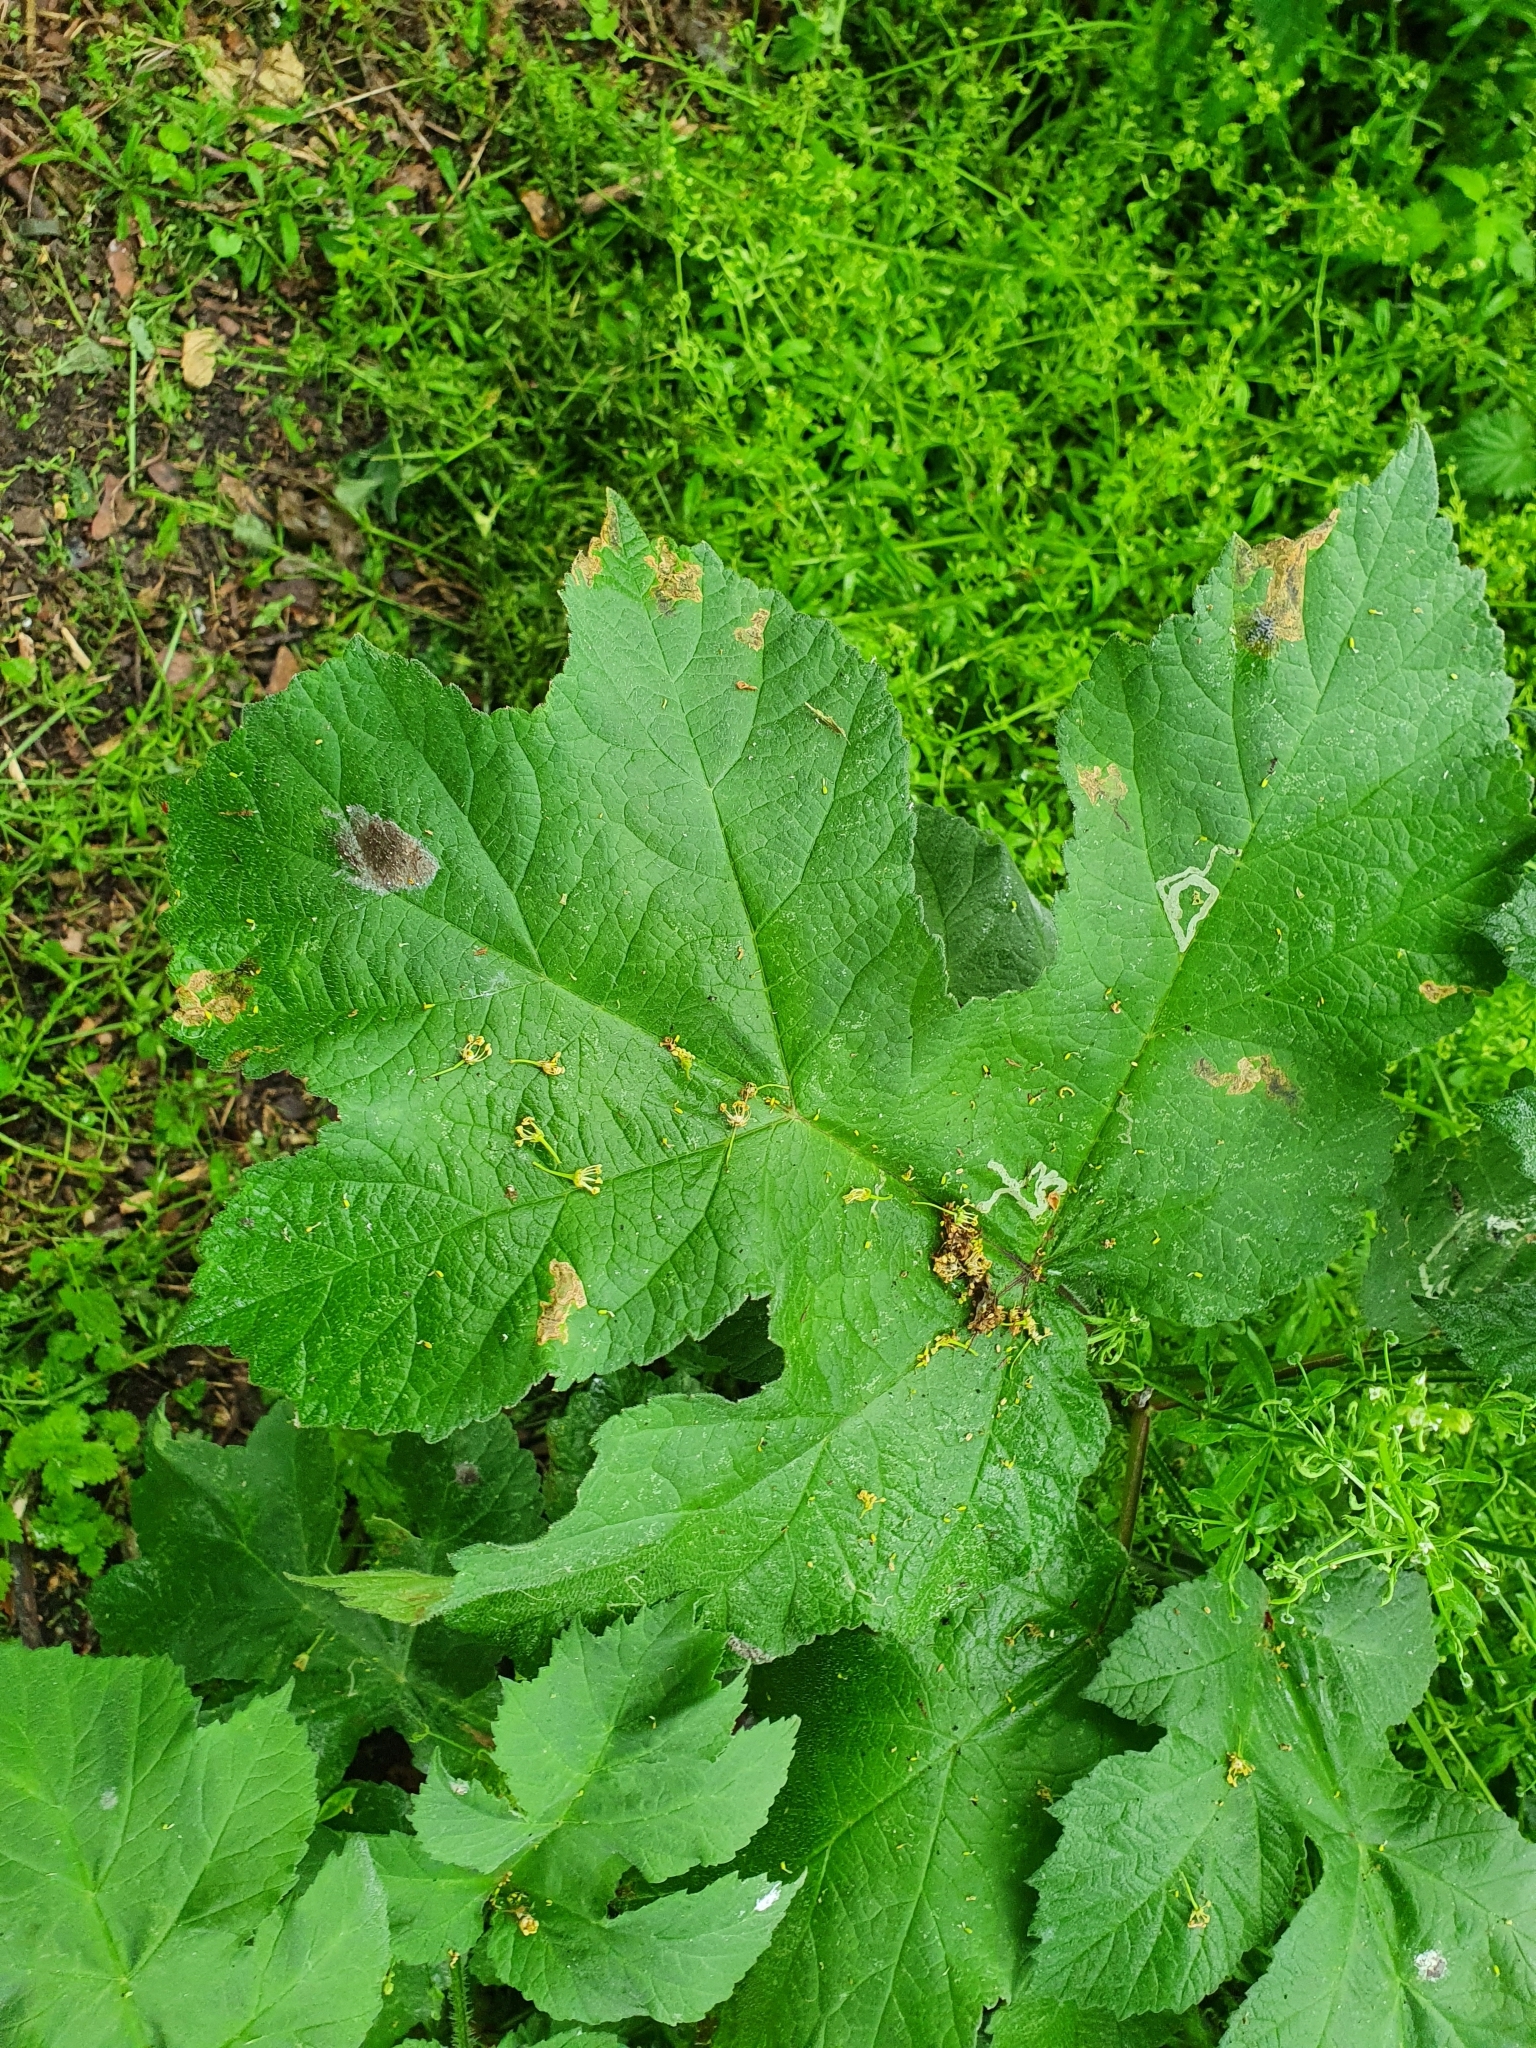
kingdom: Plantae
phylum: Tracheophyta
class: Magnoliopsida
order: Apiales
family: Apiaceae
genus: Heracleum
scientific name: Heracleum sphondylium
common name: Hogweed
